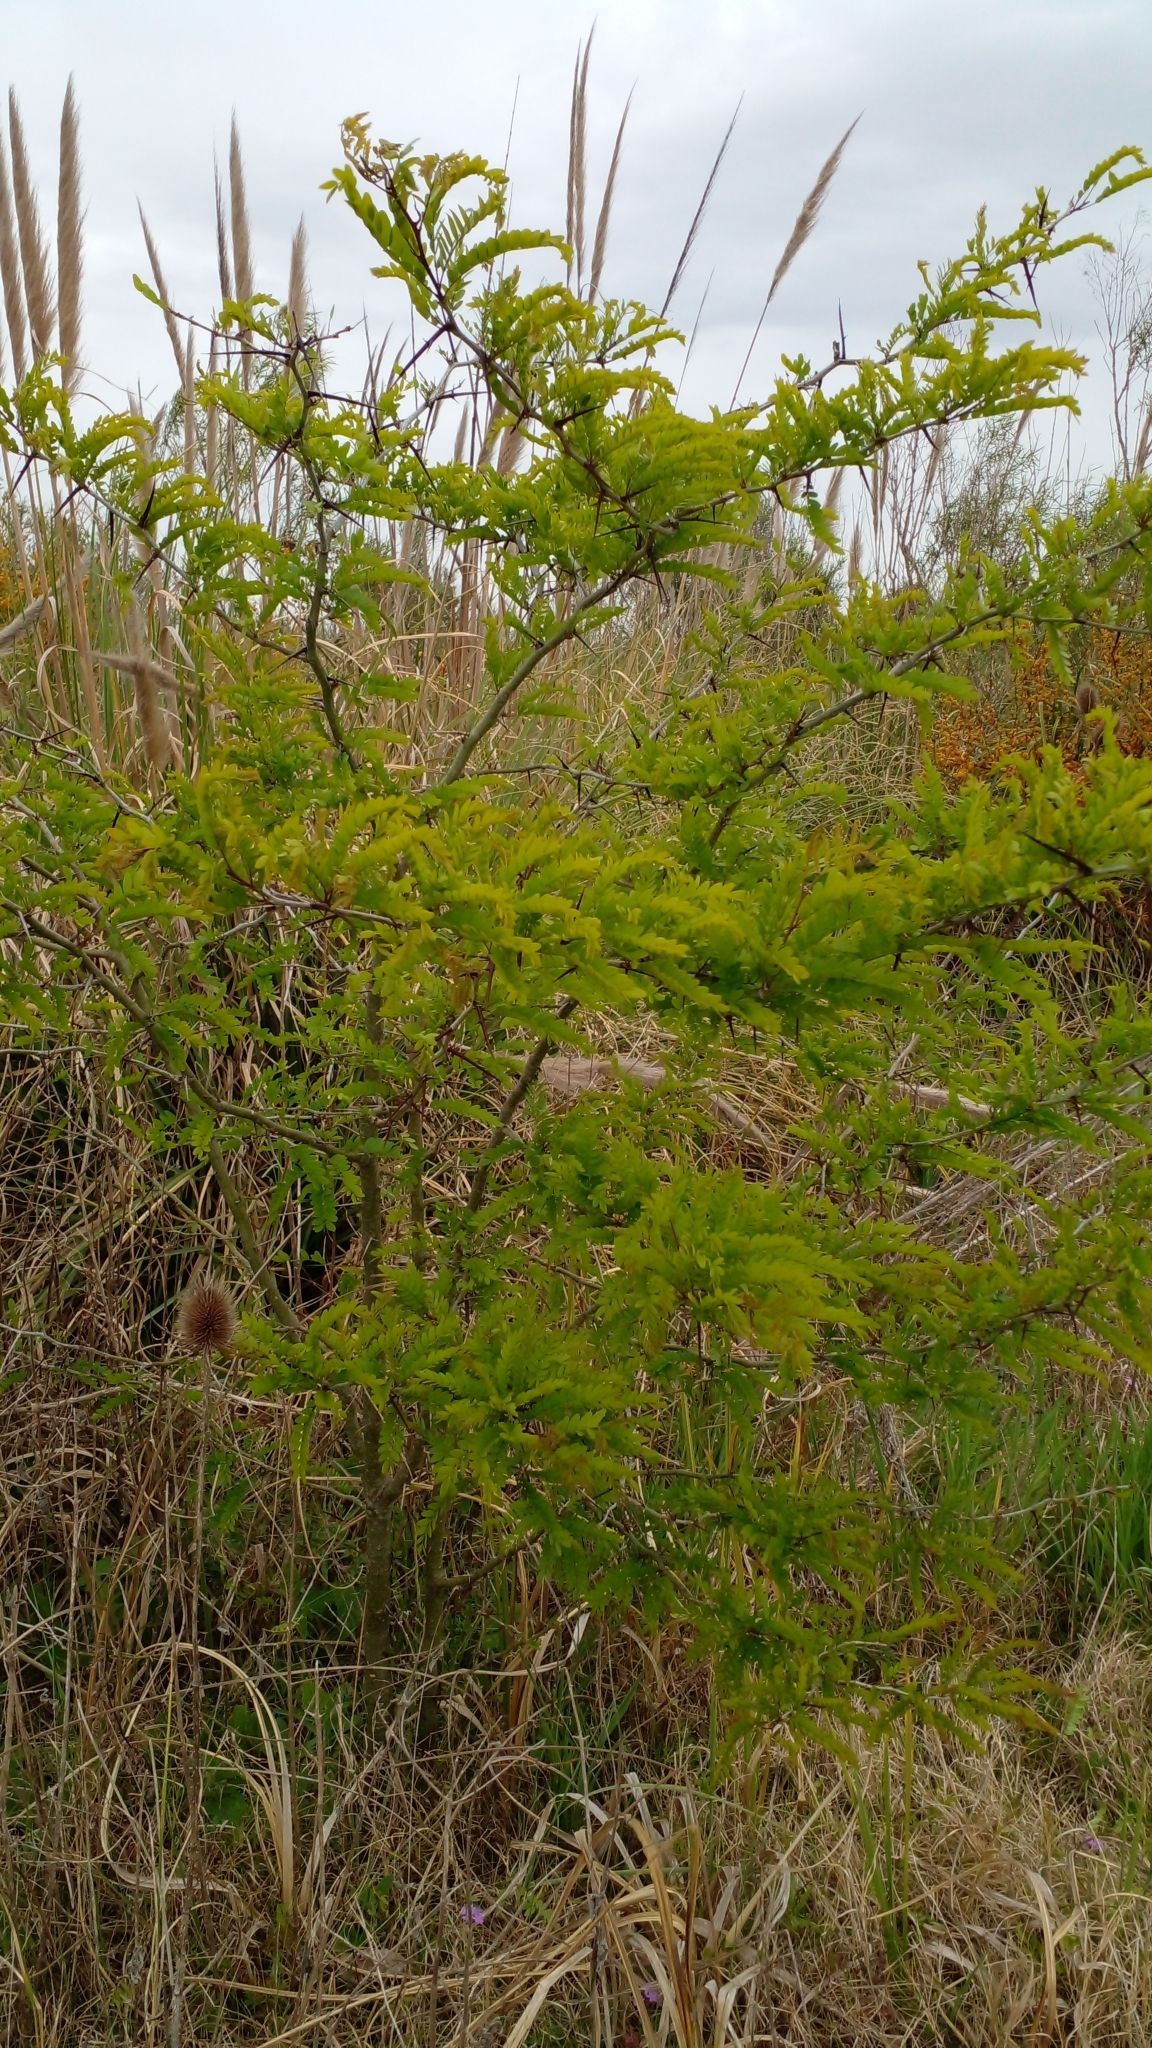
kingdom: Plantae
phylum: Tracheophyta
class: Magnoliopsida
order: Fabales
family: Fabaceae
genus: Gleditsia
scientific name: Gleditsia triacanthos
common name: Common honeylocust
